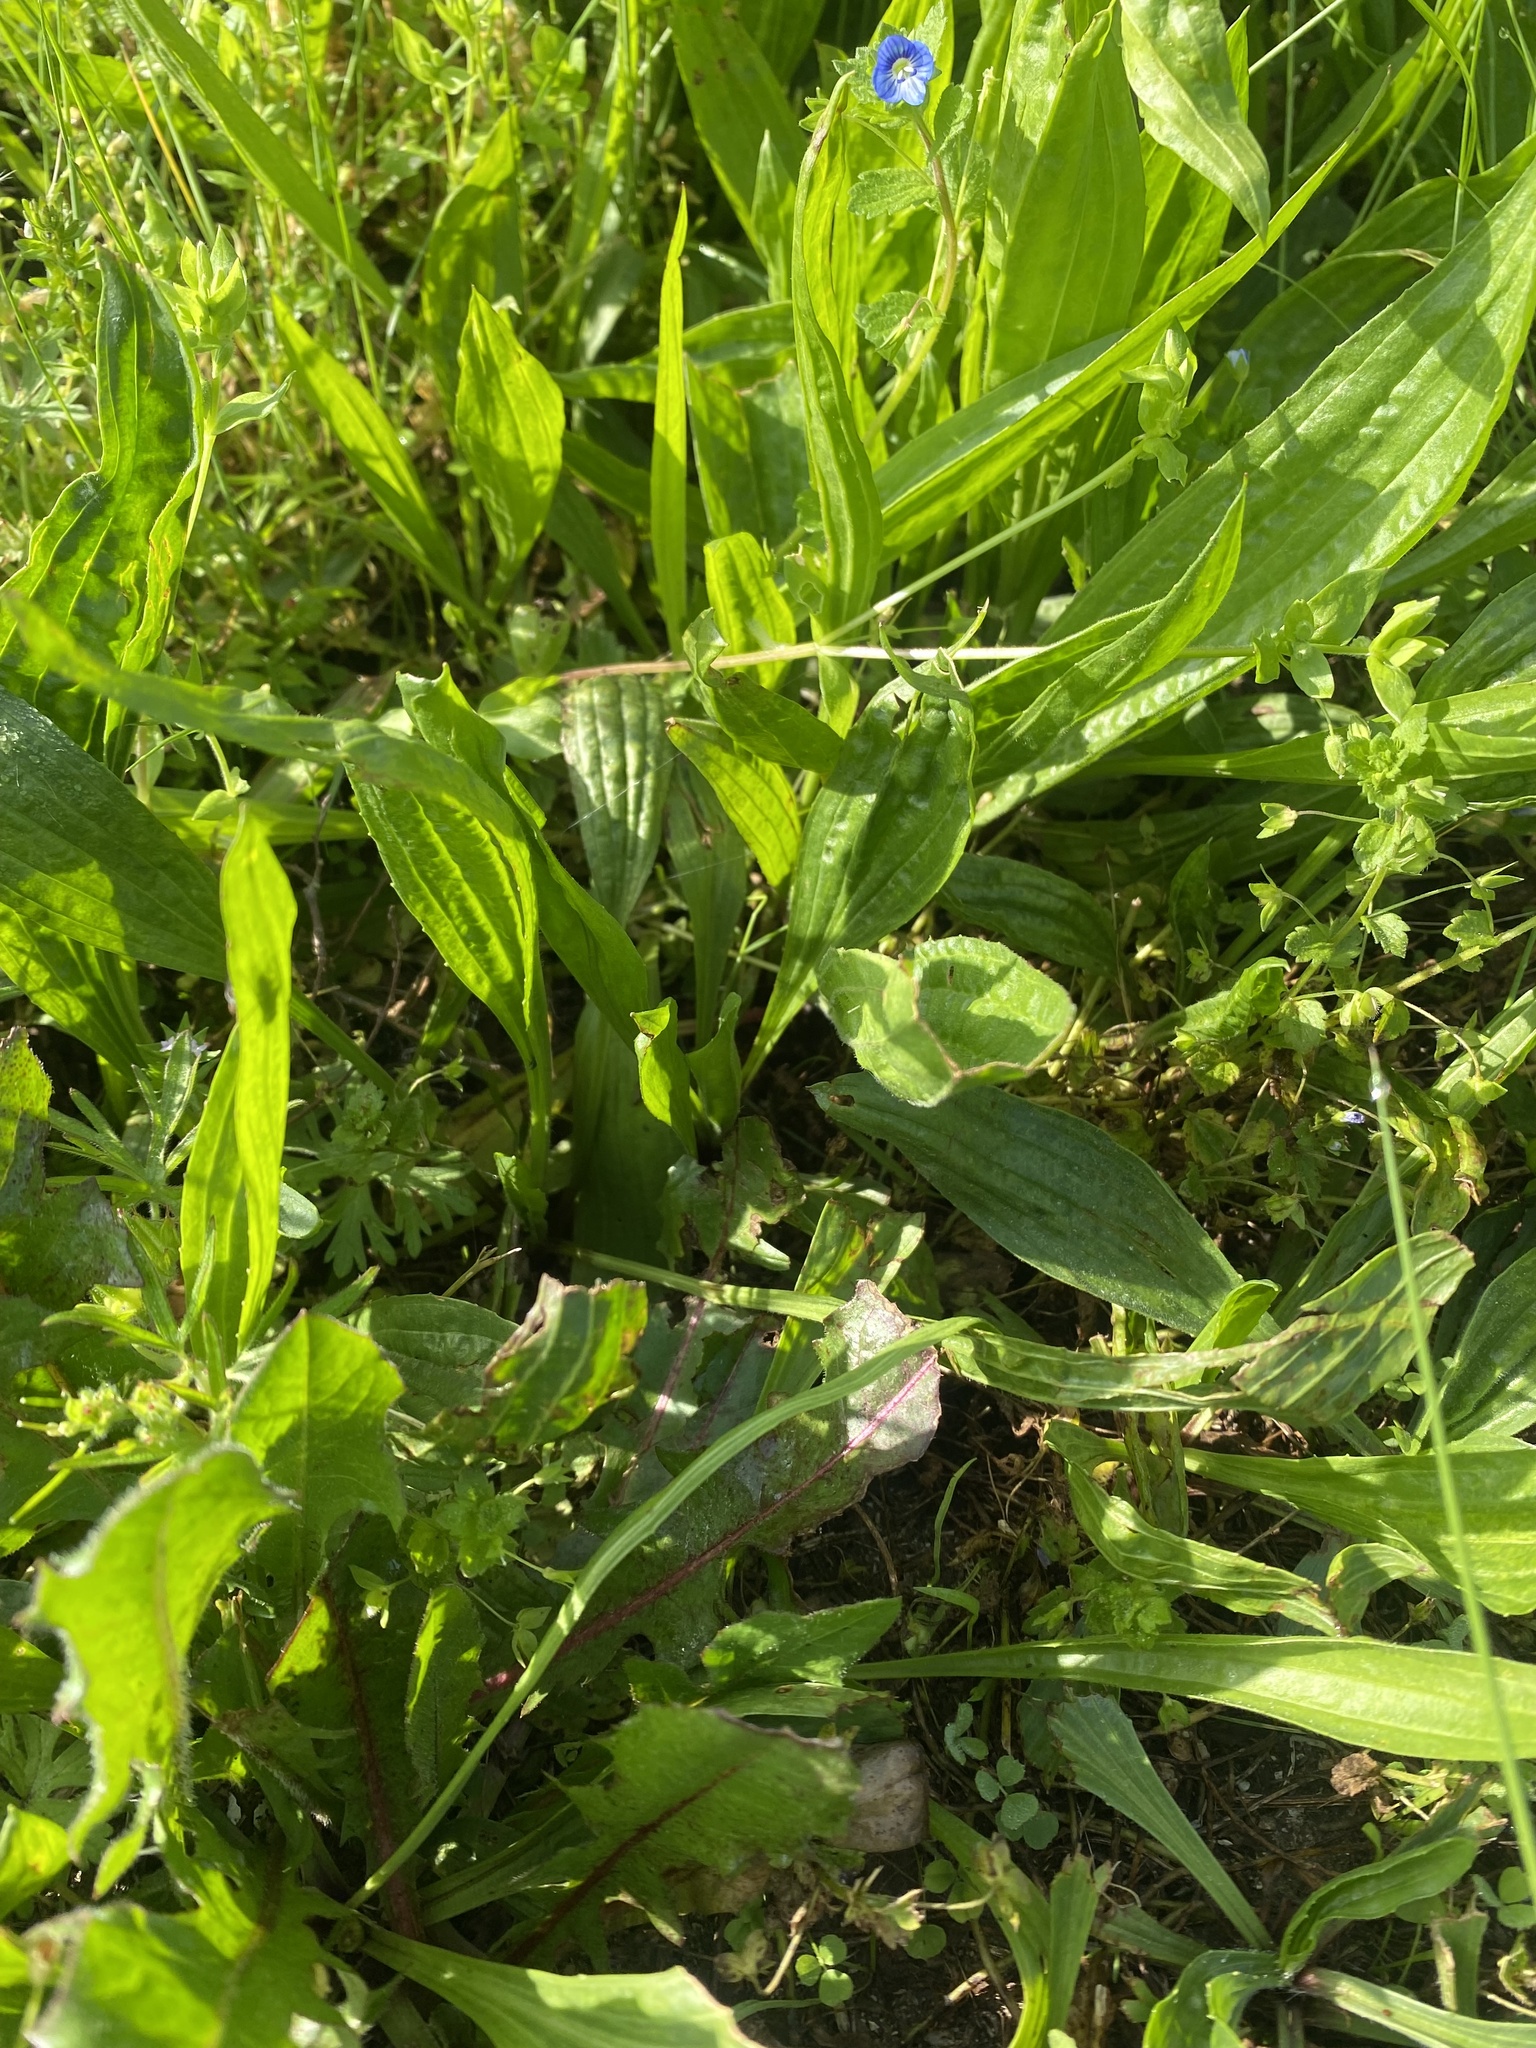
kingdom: Plantae
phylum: Tracheophyta
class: Magnoliopsida
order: Lamiales
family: Plantaginaceae
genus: Plantago
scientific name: Plantago lanceolata
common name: Ribwort plantain
